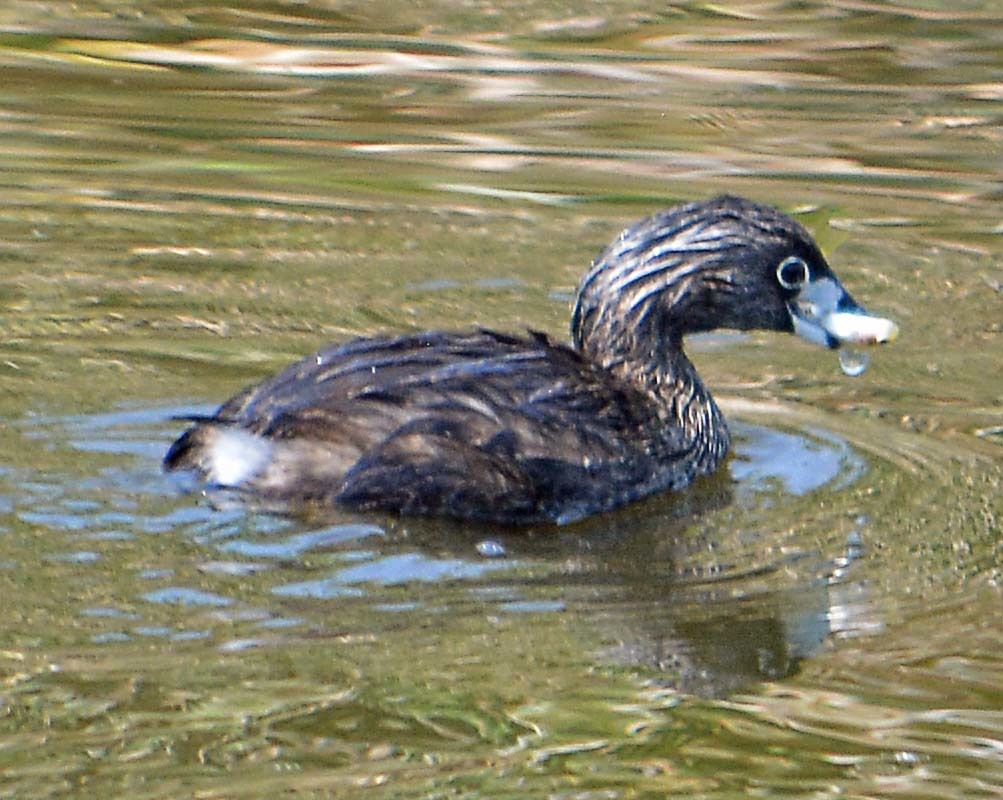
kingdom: Animalia
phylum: Chordata
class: Aves
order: Podicipediformes
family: Podicipedidae
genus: Podilymbus
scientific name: Podilymbus podiceps
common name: Pied-billed grebe
